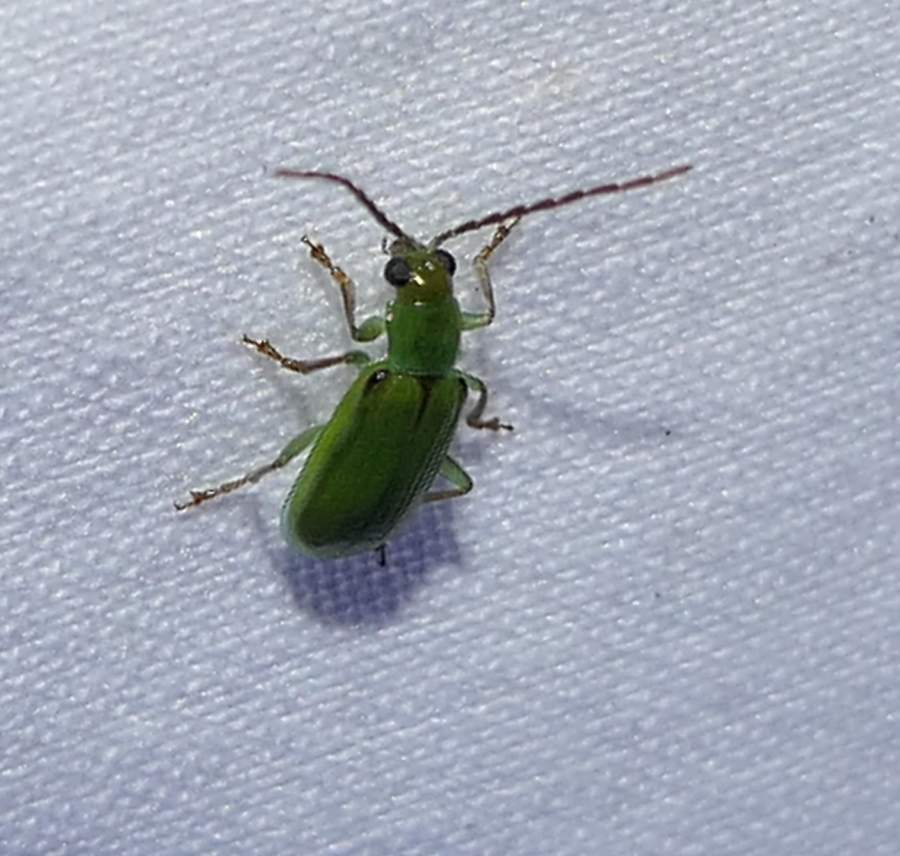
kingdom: Animalia
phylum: Arthropoda
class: Insecta
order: Coleoptera
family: Chrysomelidae
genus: Diabrotica
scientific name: Diabrotica barberi
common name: Northern corn rootworm
